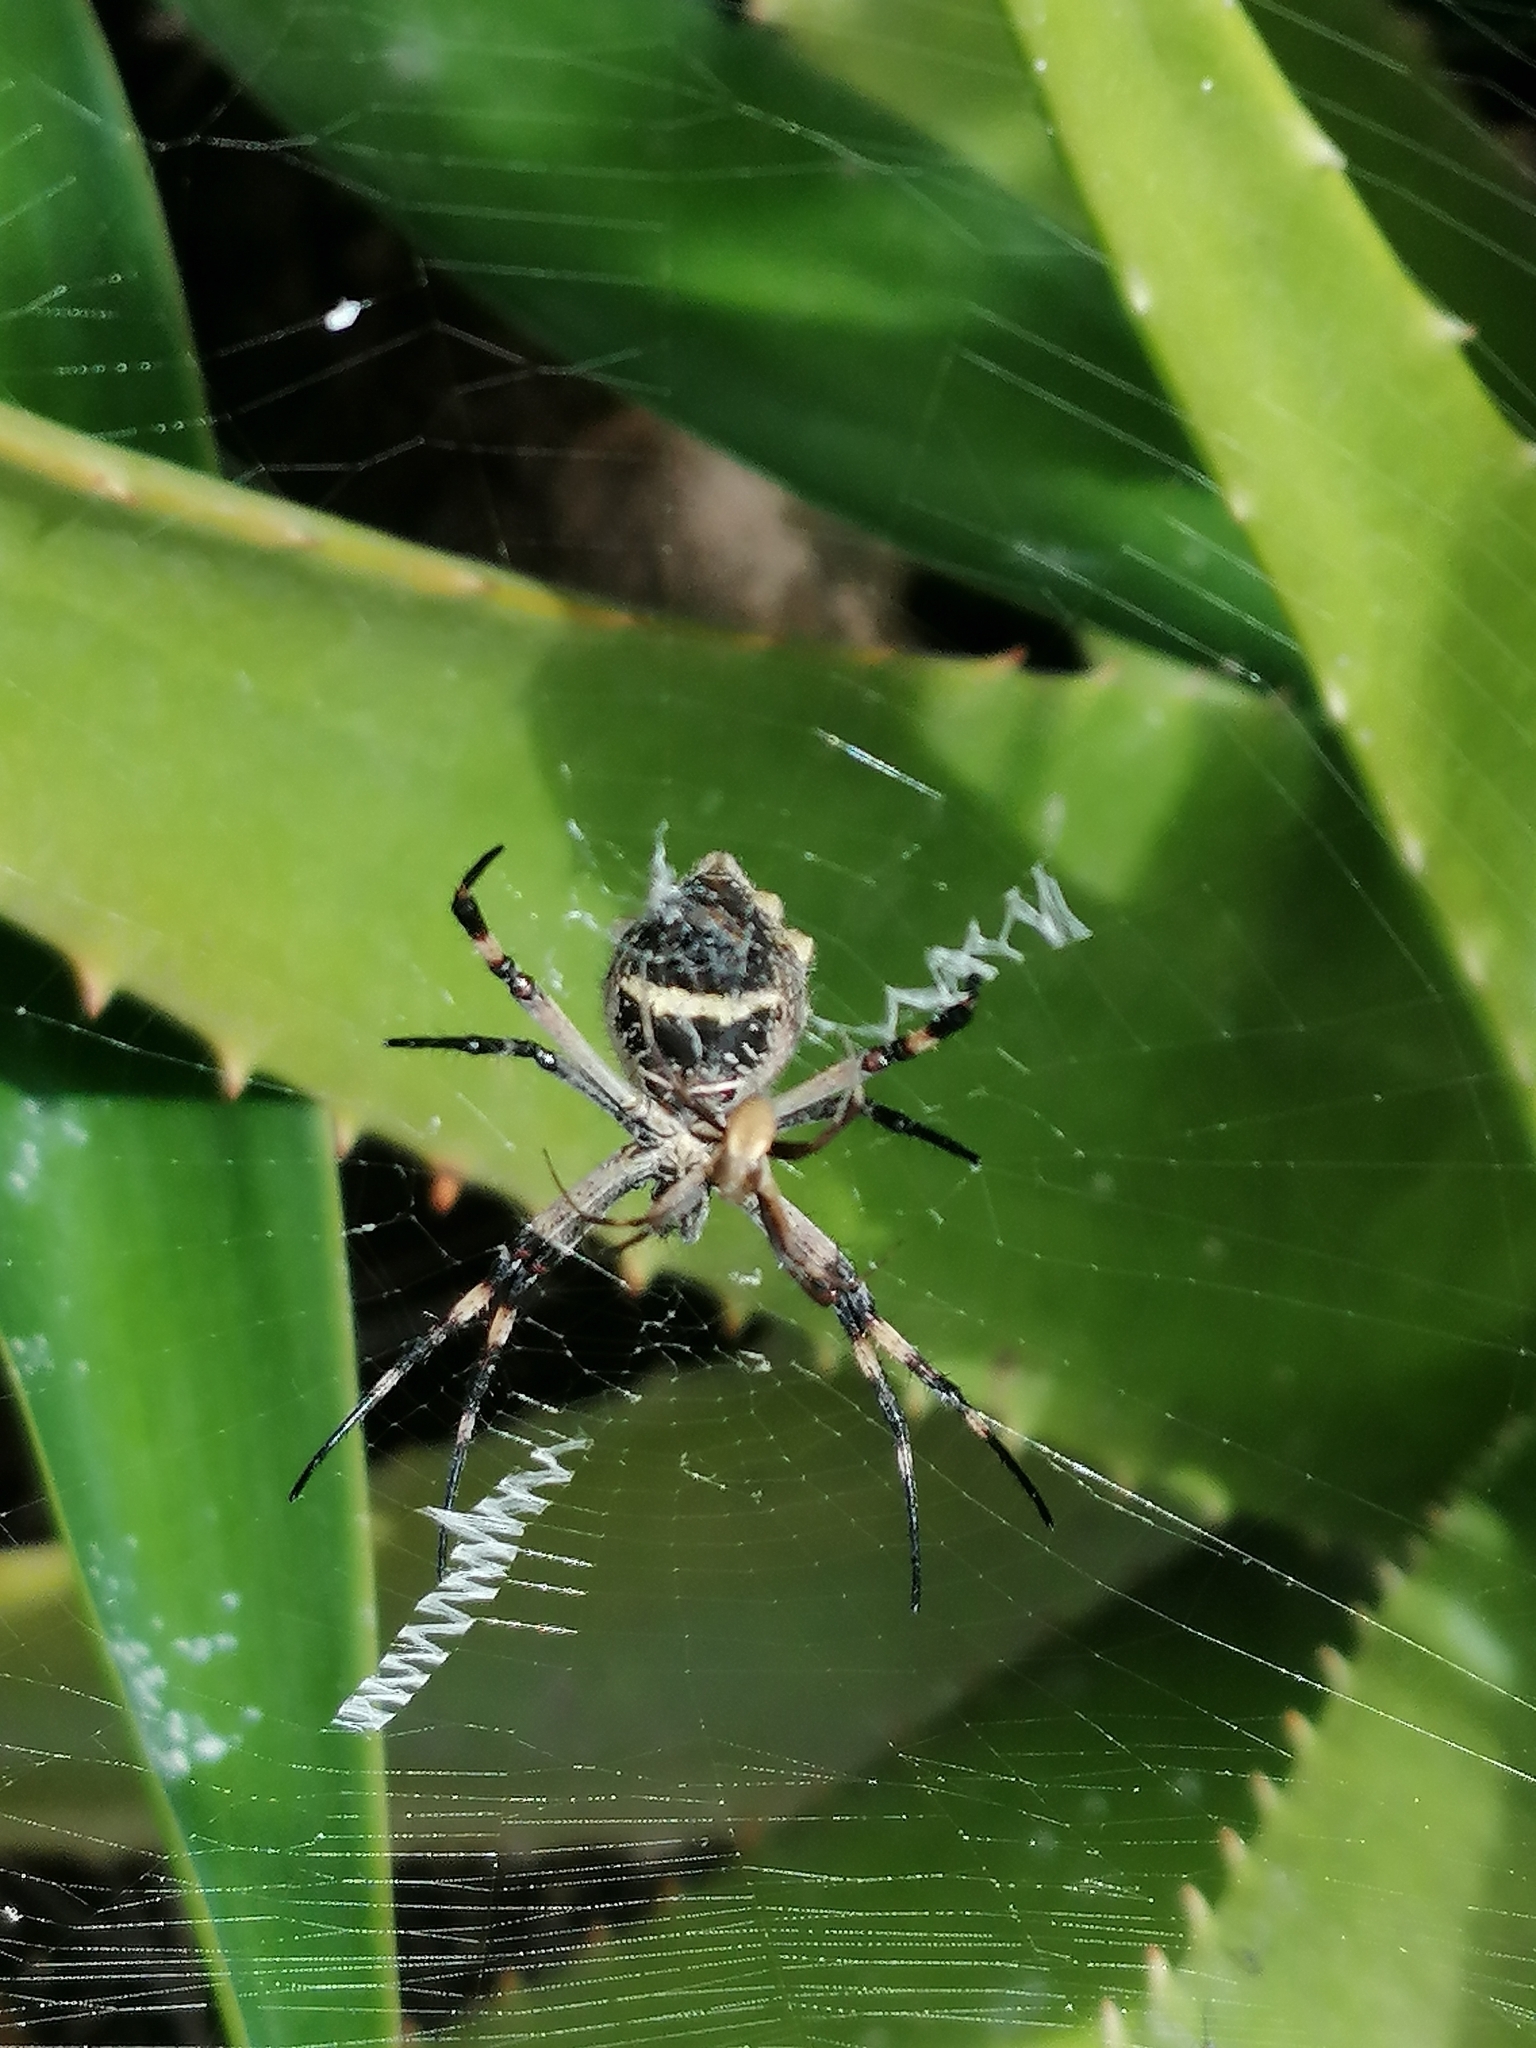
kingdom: Animalia
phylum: Arthropoda
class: Arachnida
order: Araneae
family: Araneidae
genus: Argiope
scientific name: Argiope argentata
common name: Orb weavers
